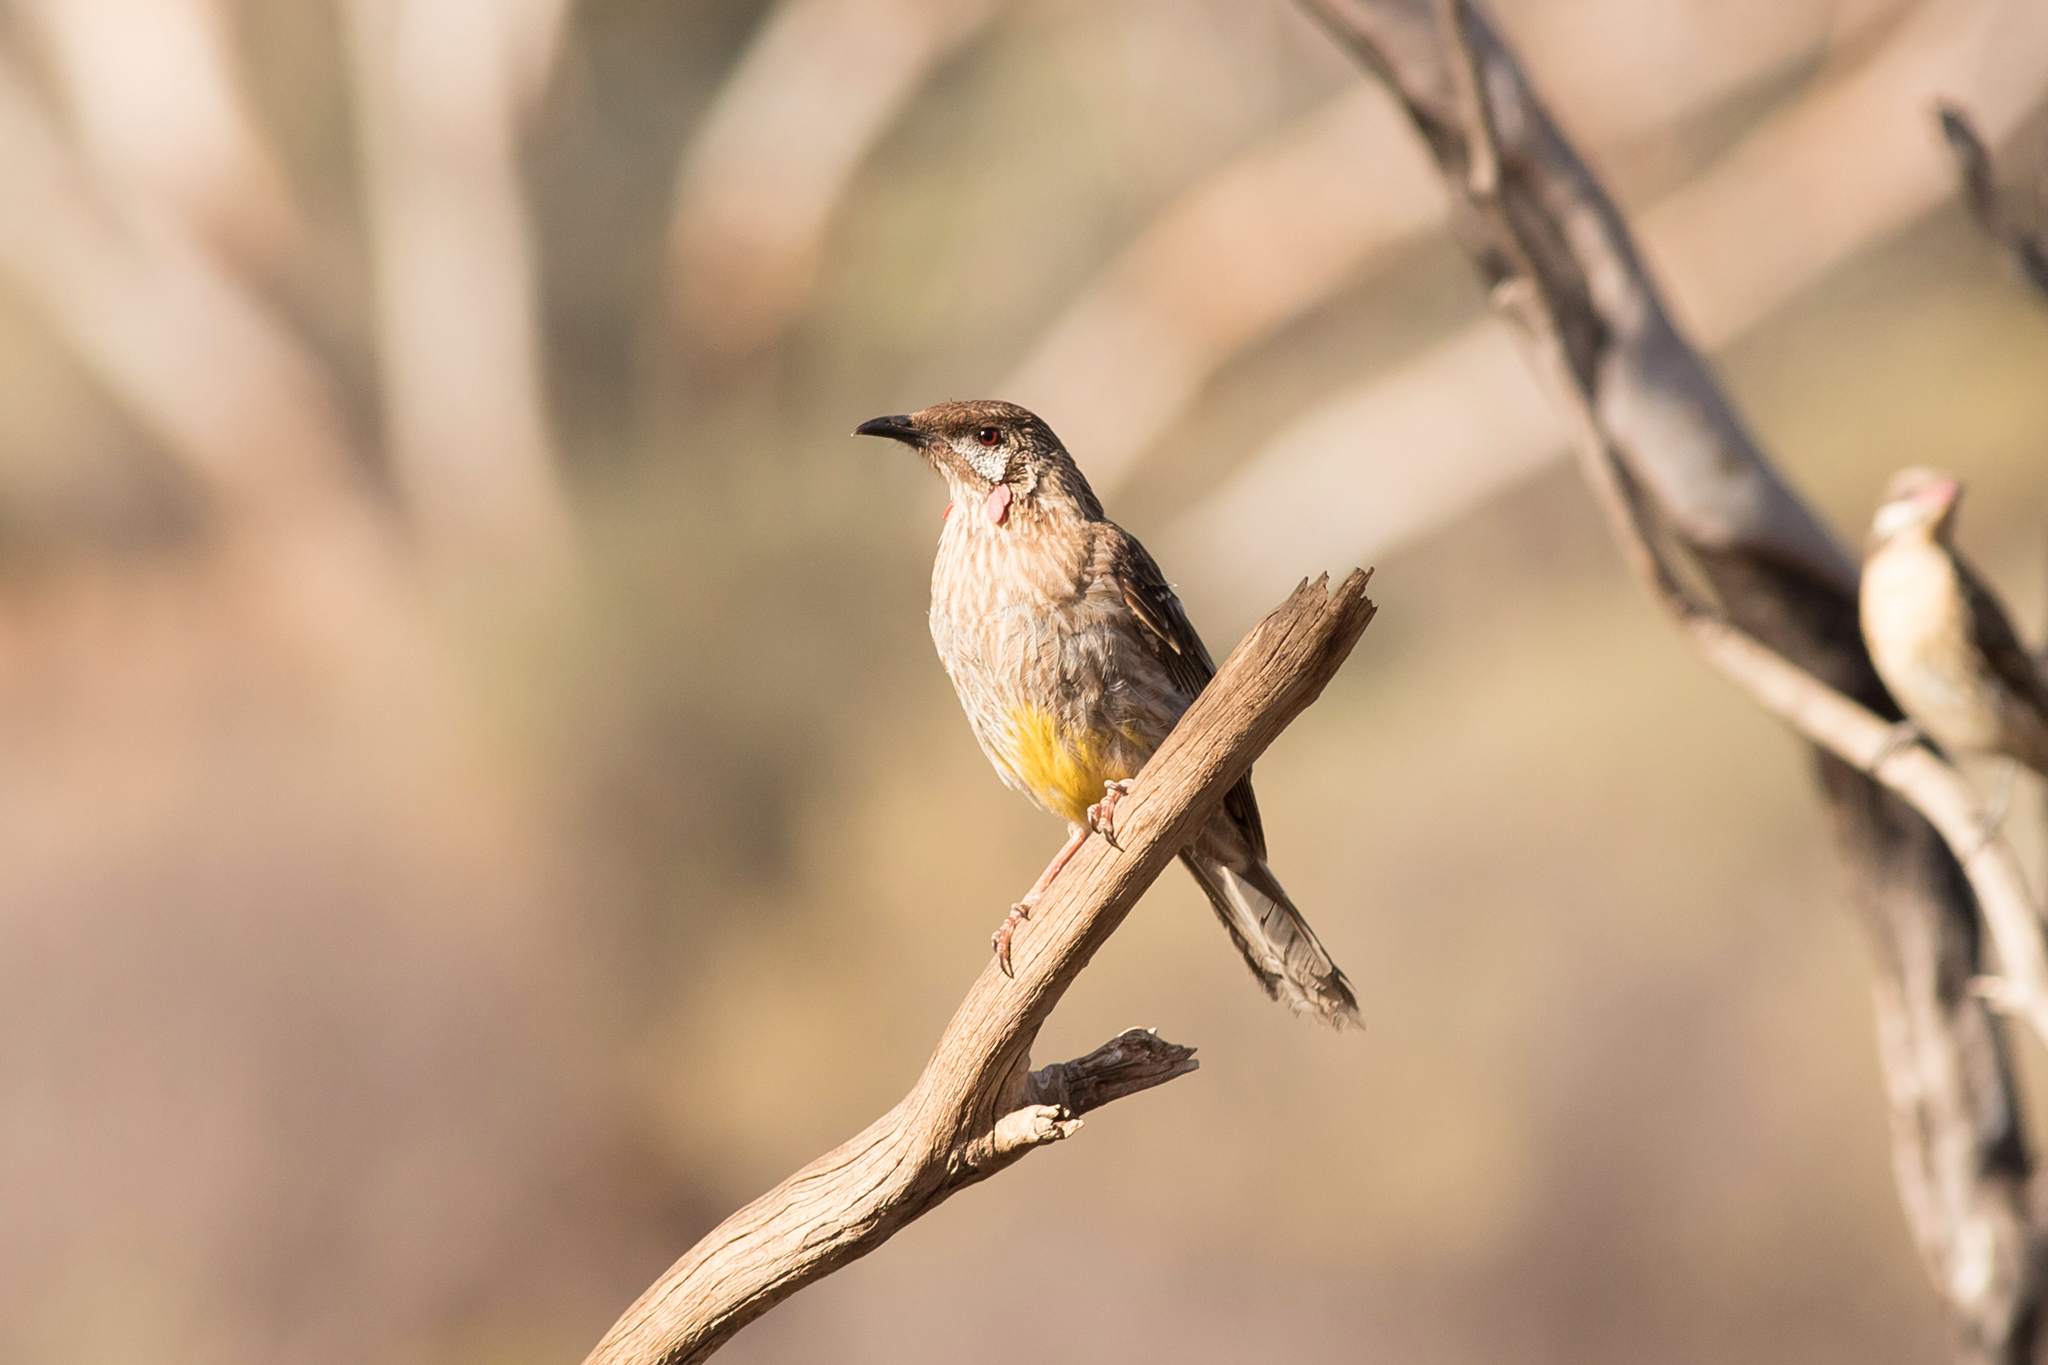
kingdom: Animalia
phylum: Chordata
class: Aves
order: Passeriformes
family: Meliphagidae
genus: Anthochaera
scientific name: Anthochaera carunculata
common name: Red wattlebird
